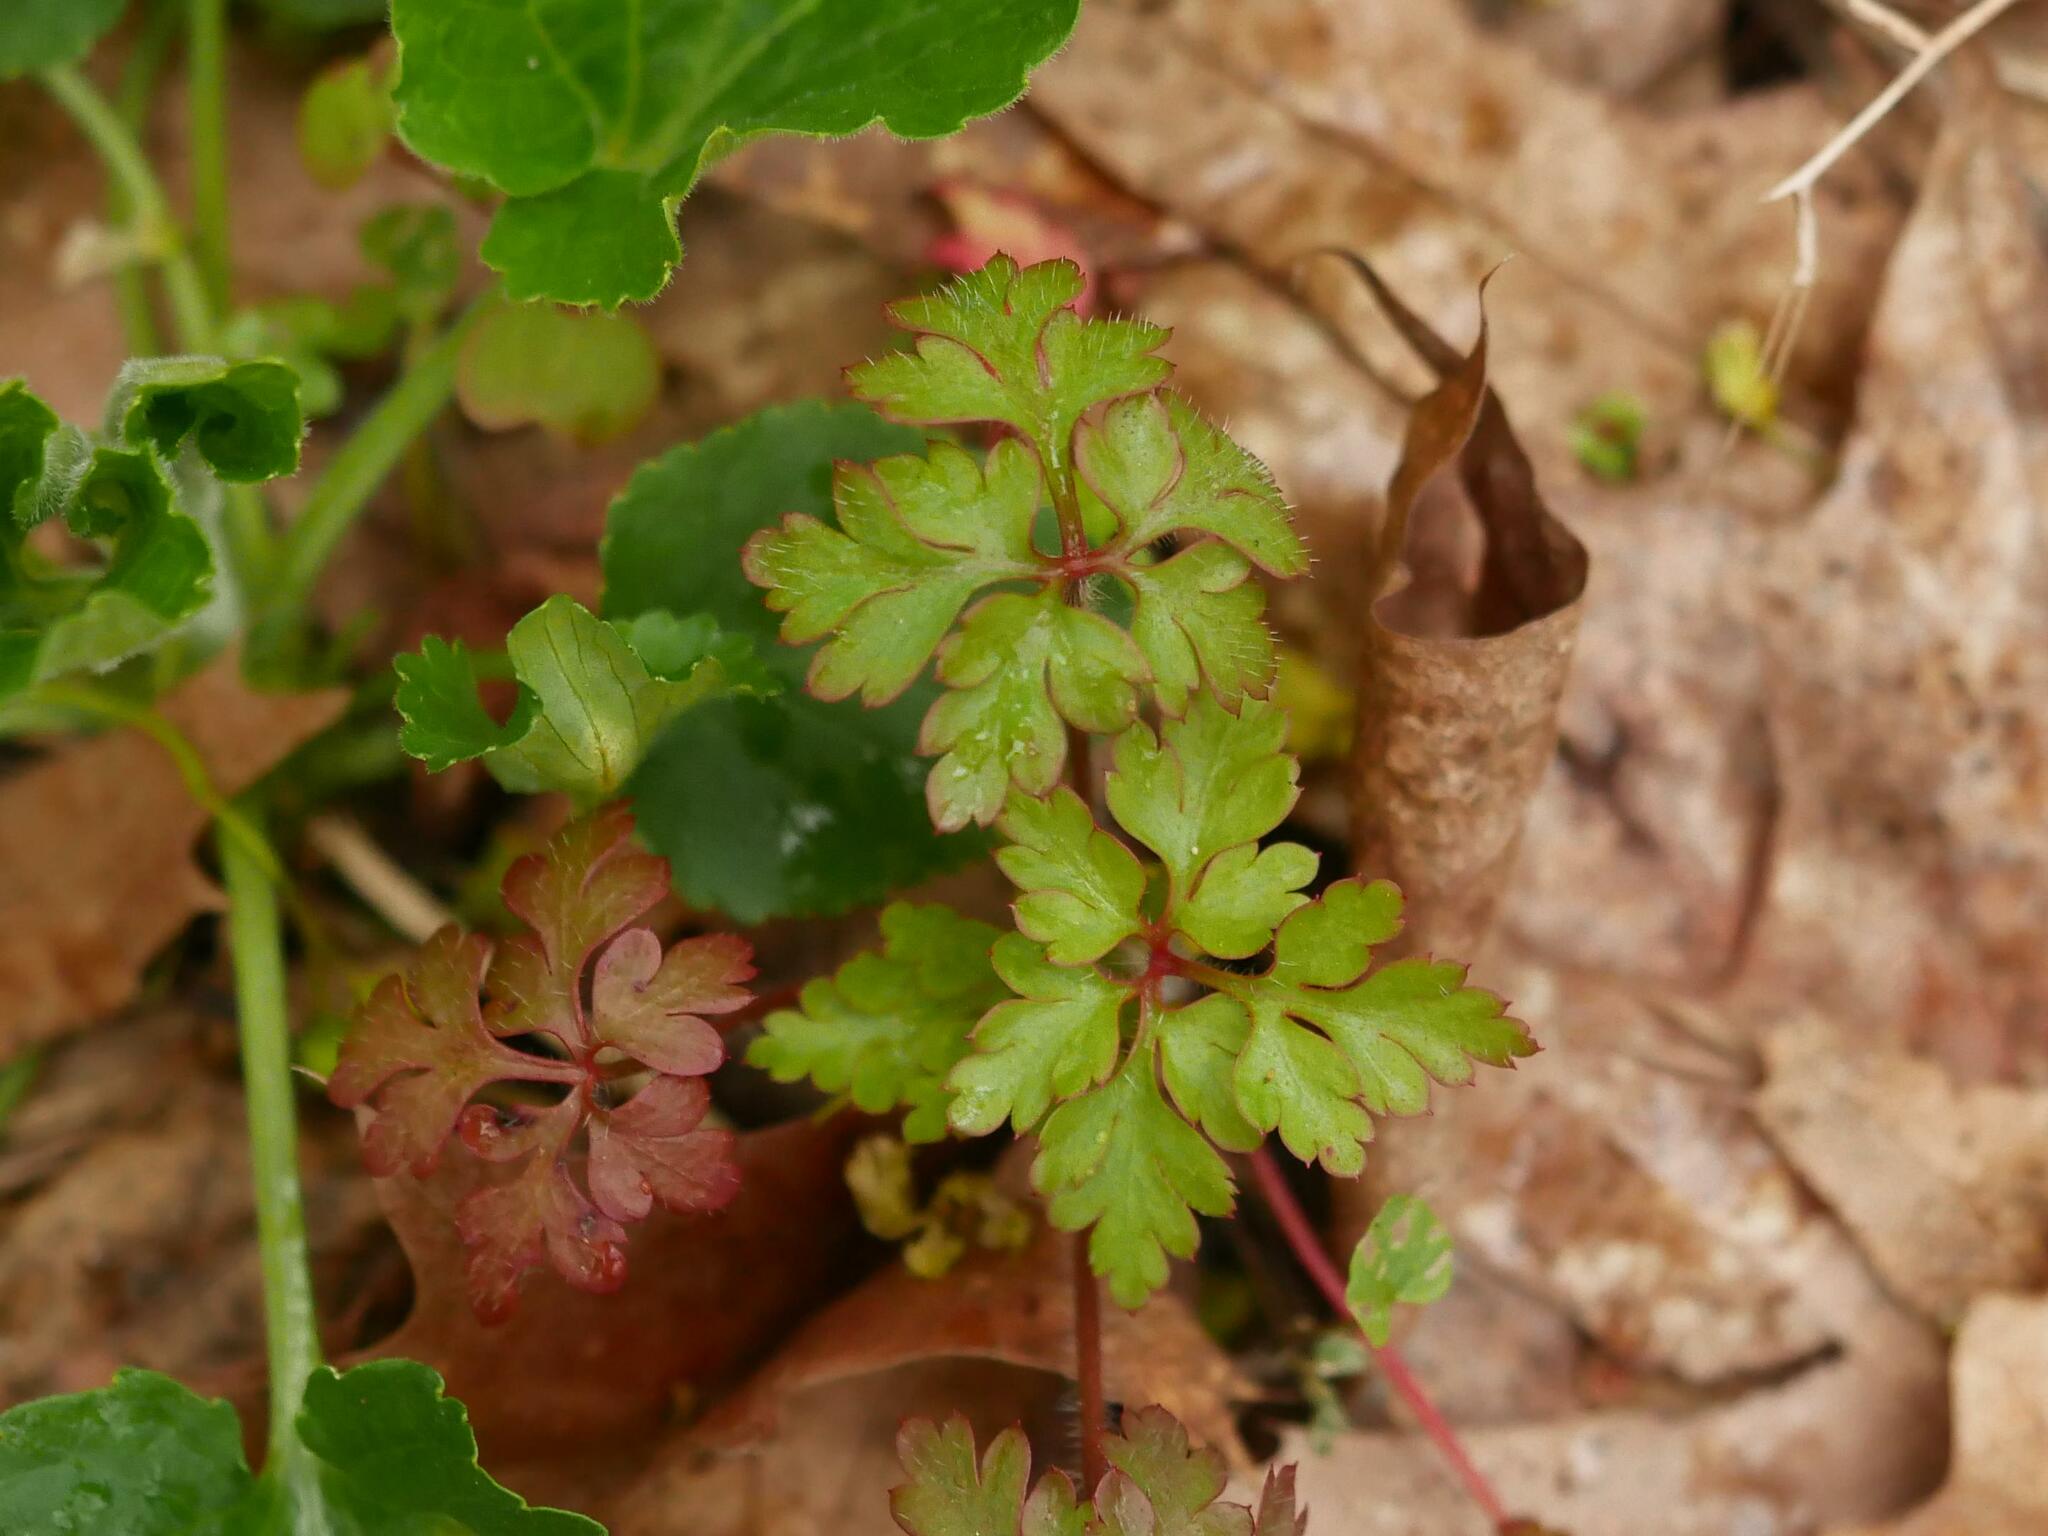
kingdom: Plantae
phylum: Tracheophyta
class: Magnoliopsida
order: Geraniales
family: Geraniaceae
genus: Geranium
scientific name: Geranium robertianum
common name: Herb-robert
